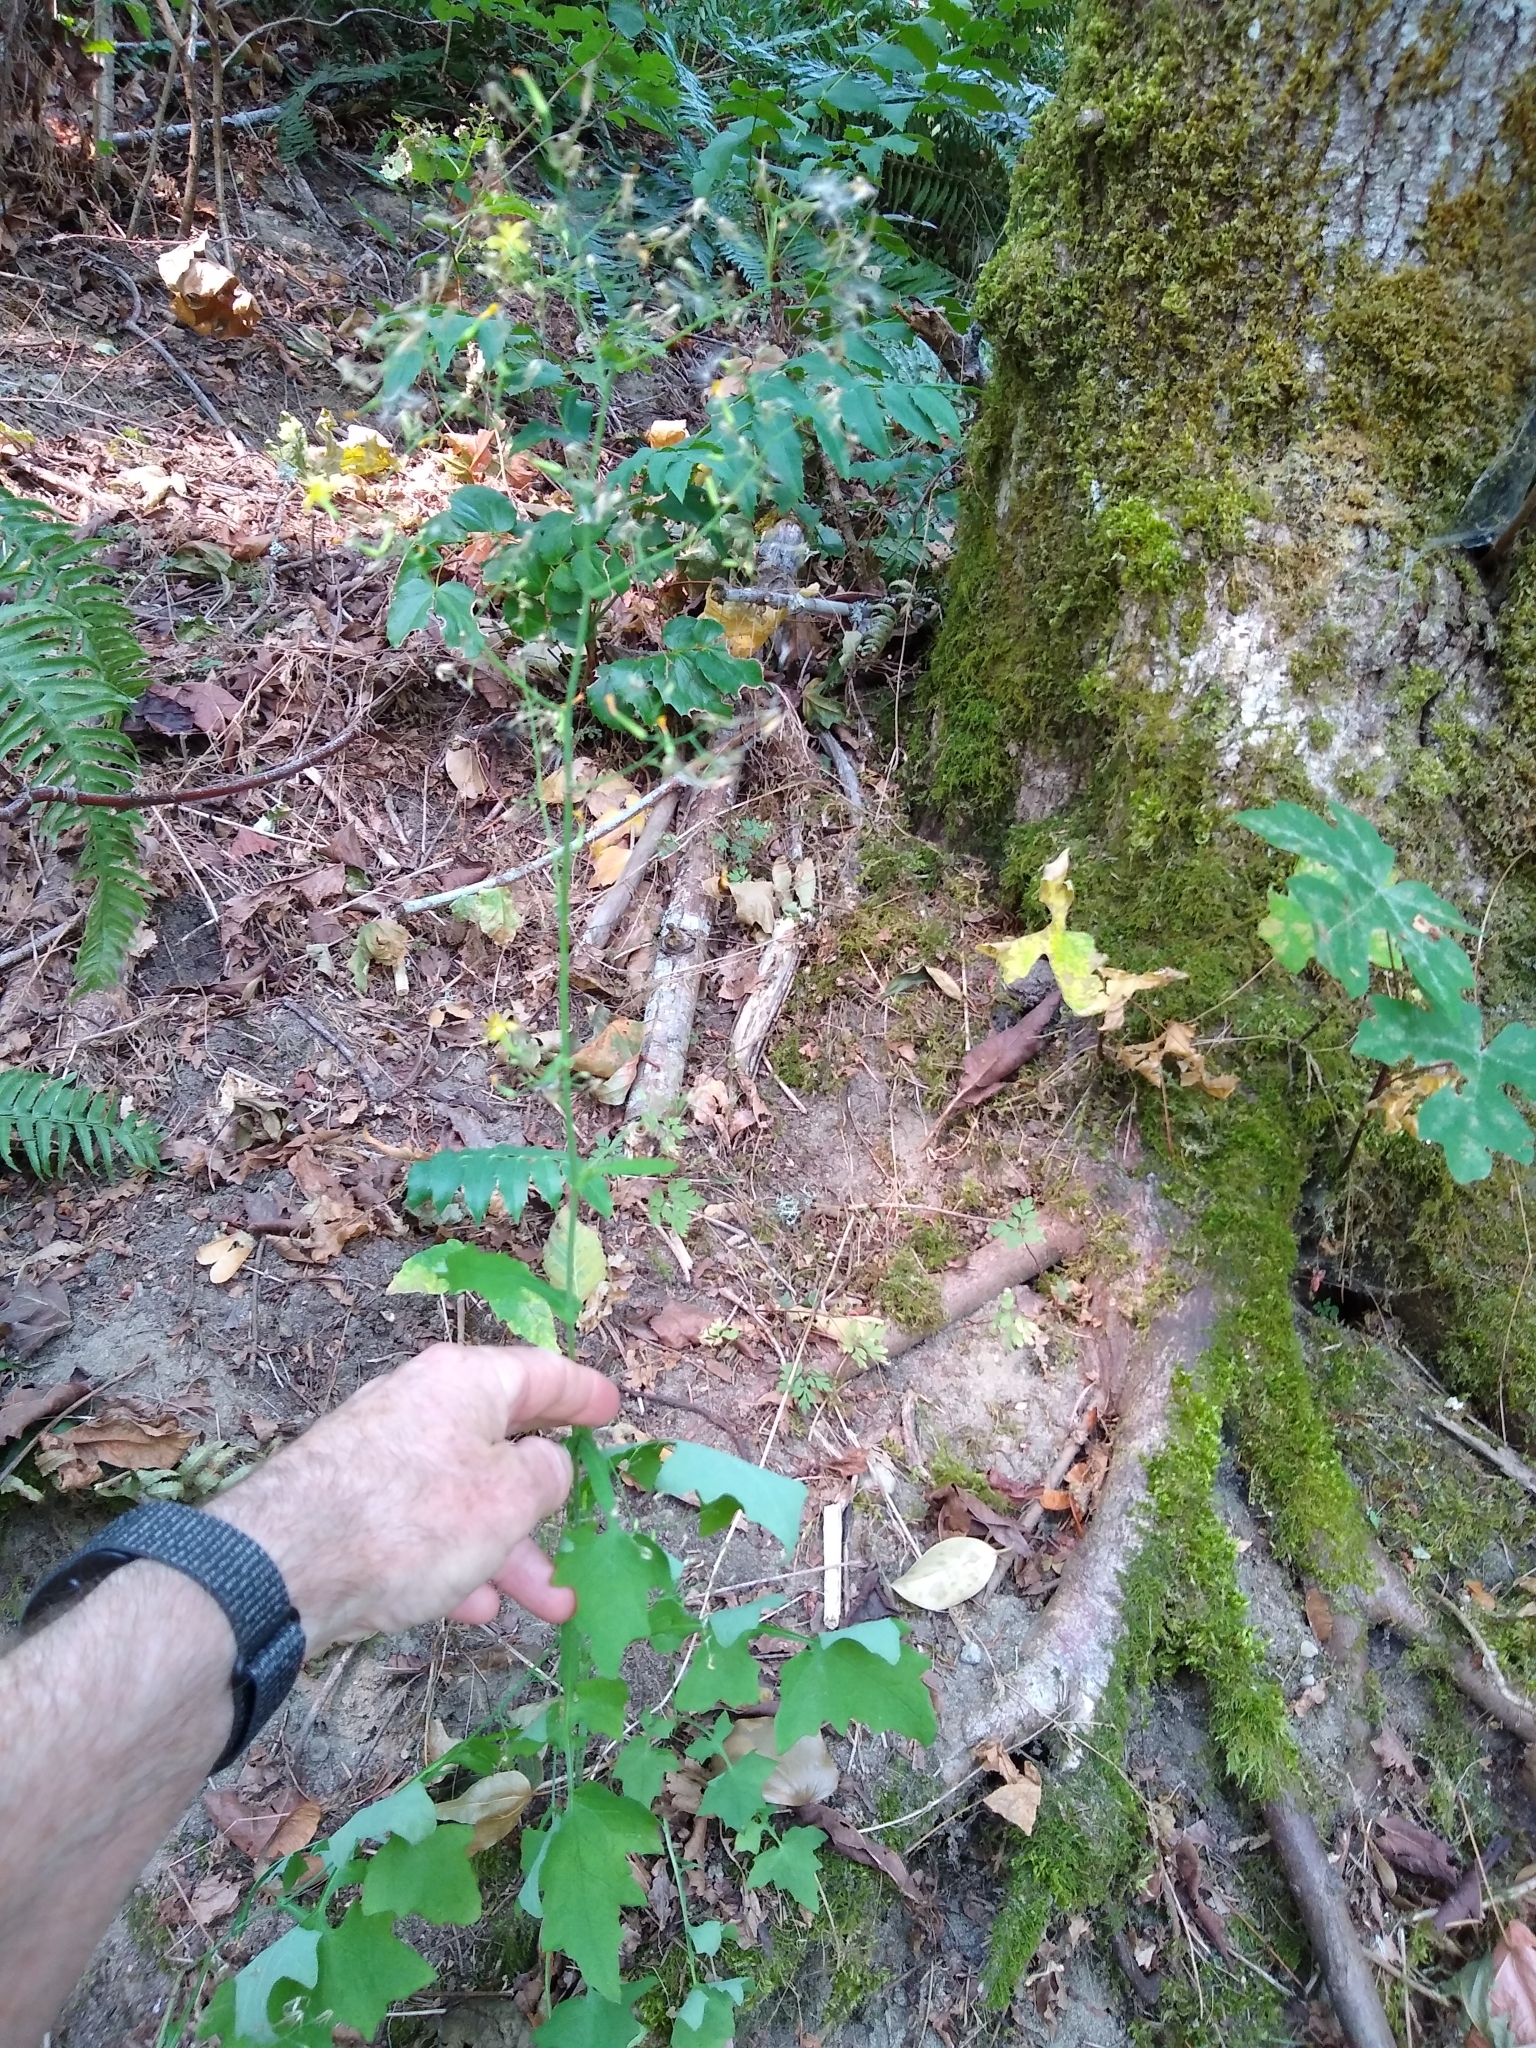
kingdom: Plantae
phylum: Tracheophyta
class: Magnoliopsida
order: Asterales
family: Asteraceae
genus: Mycelis
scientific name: Mycelis muralis
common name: Wall lettuce
